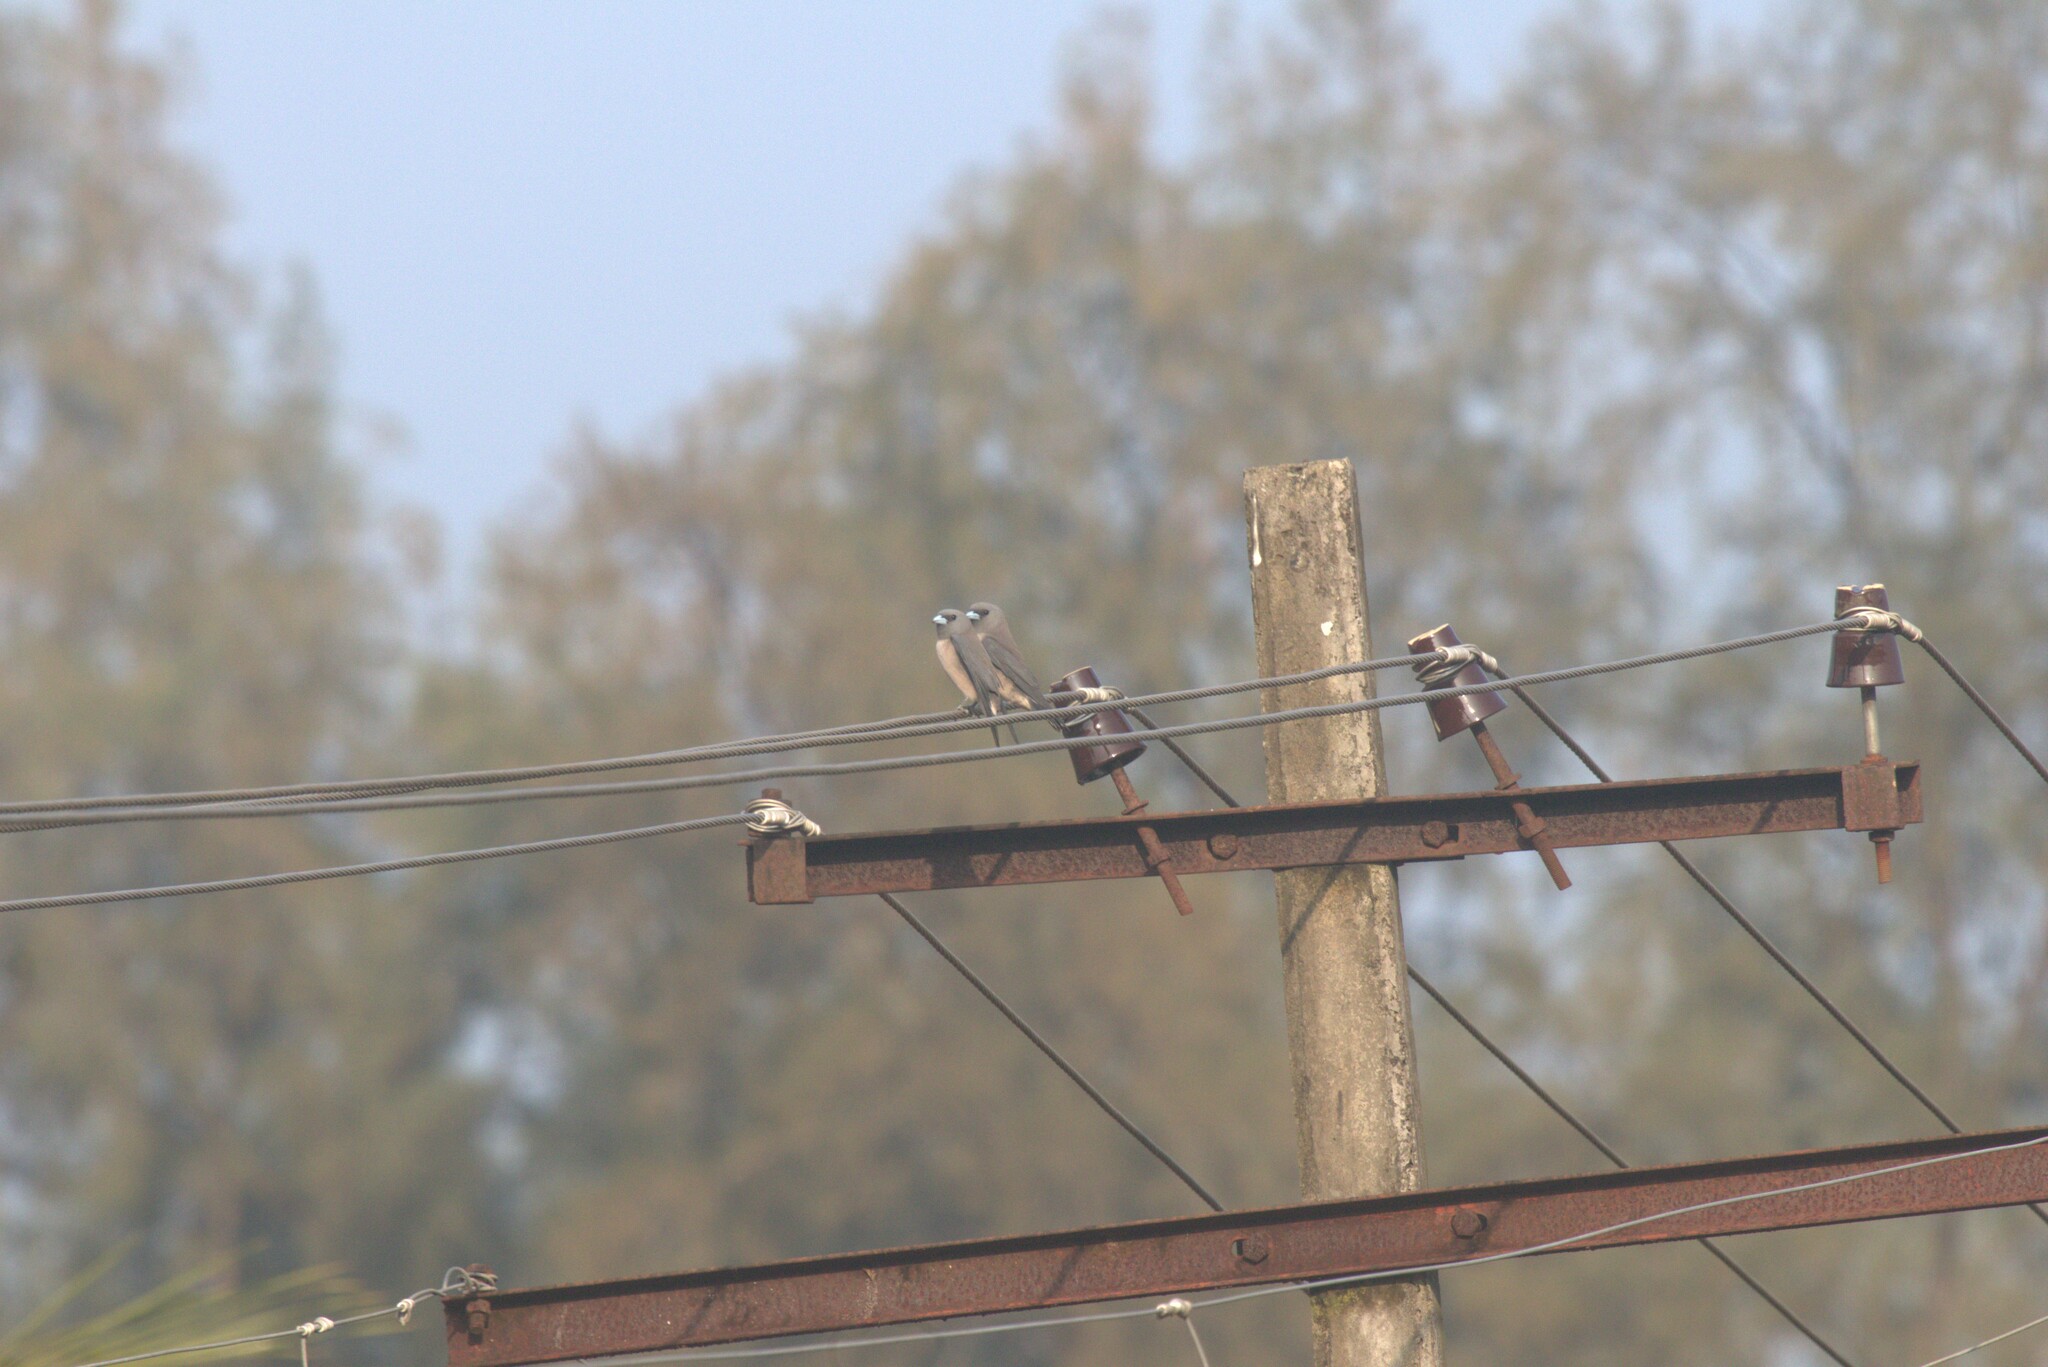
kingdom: Animalia
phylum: Chordata
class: Aves
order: Passeriformes
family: Artamidae
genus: Artamus
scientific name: Artamus fuscus
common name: Ashy woodswallow
